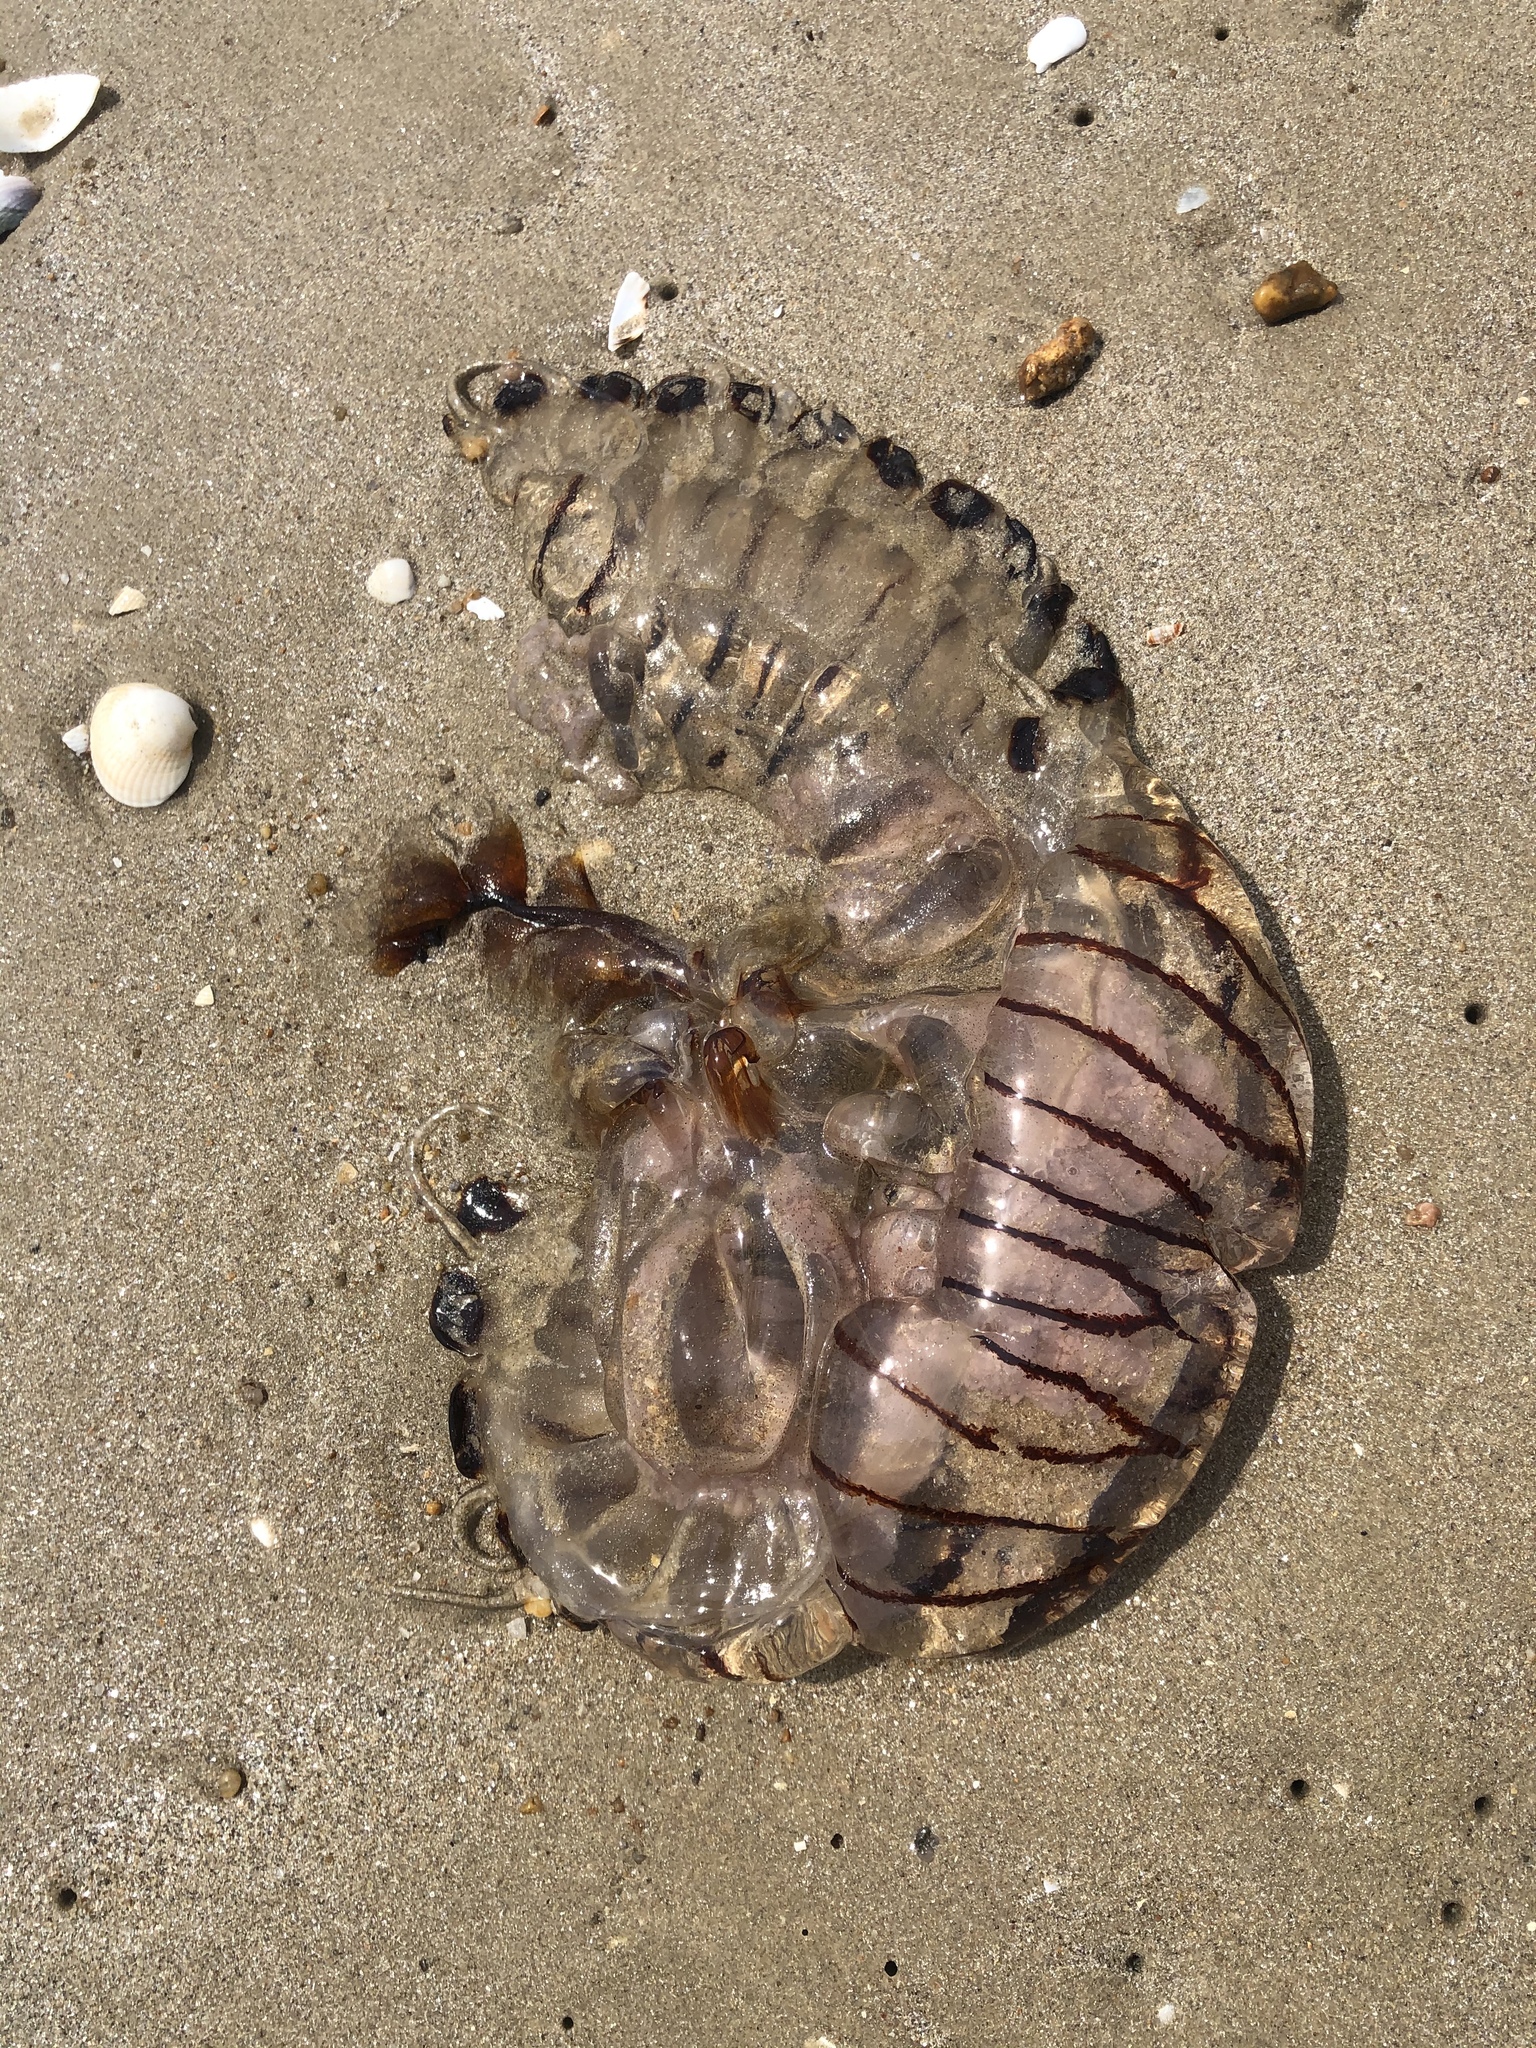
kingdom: Animalia
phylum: Cnidaria
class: Scyphozoa
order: Semaeostomeae
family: Pelagiidae
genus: Chrysaora
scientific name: Chrysaora hysoscella
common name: Compass jellyfish
